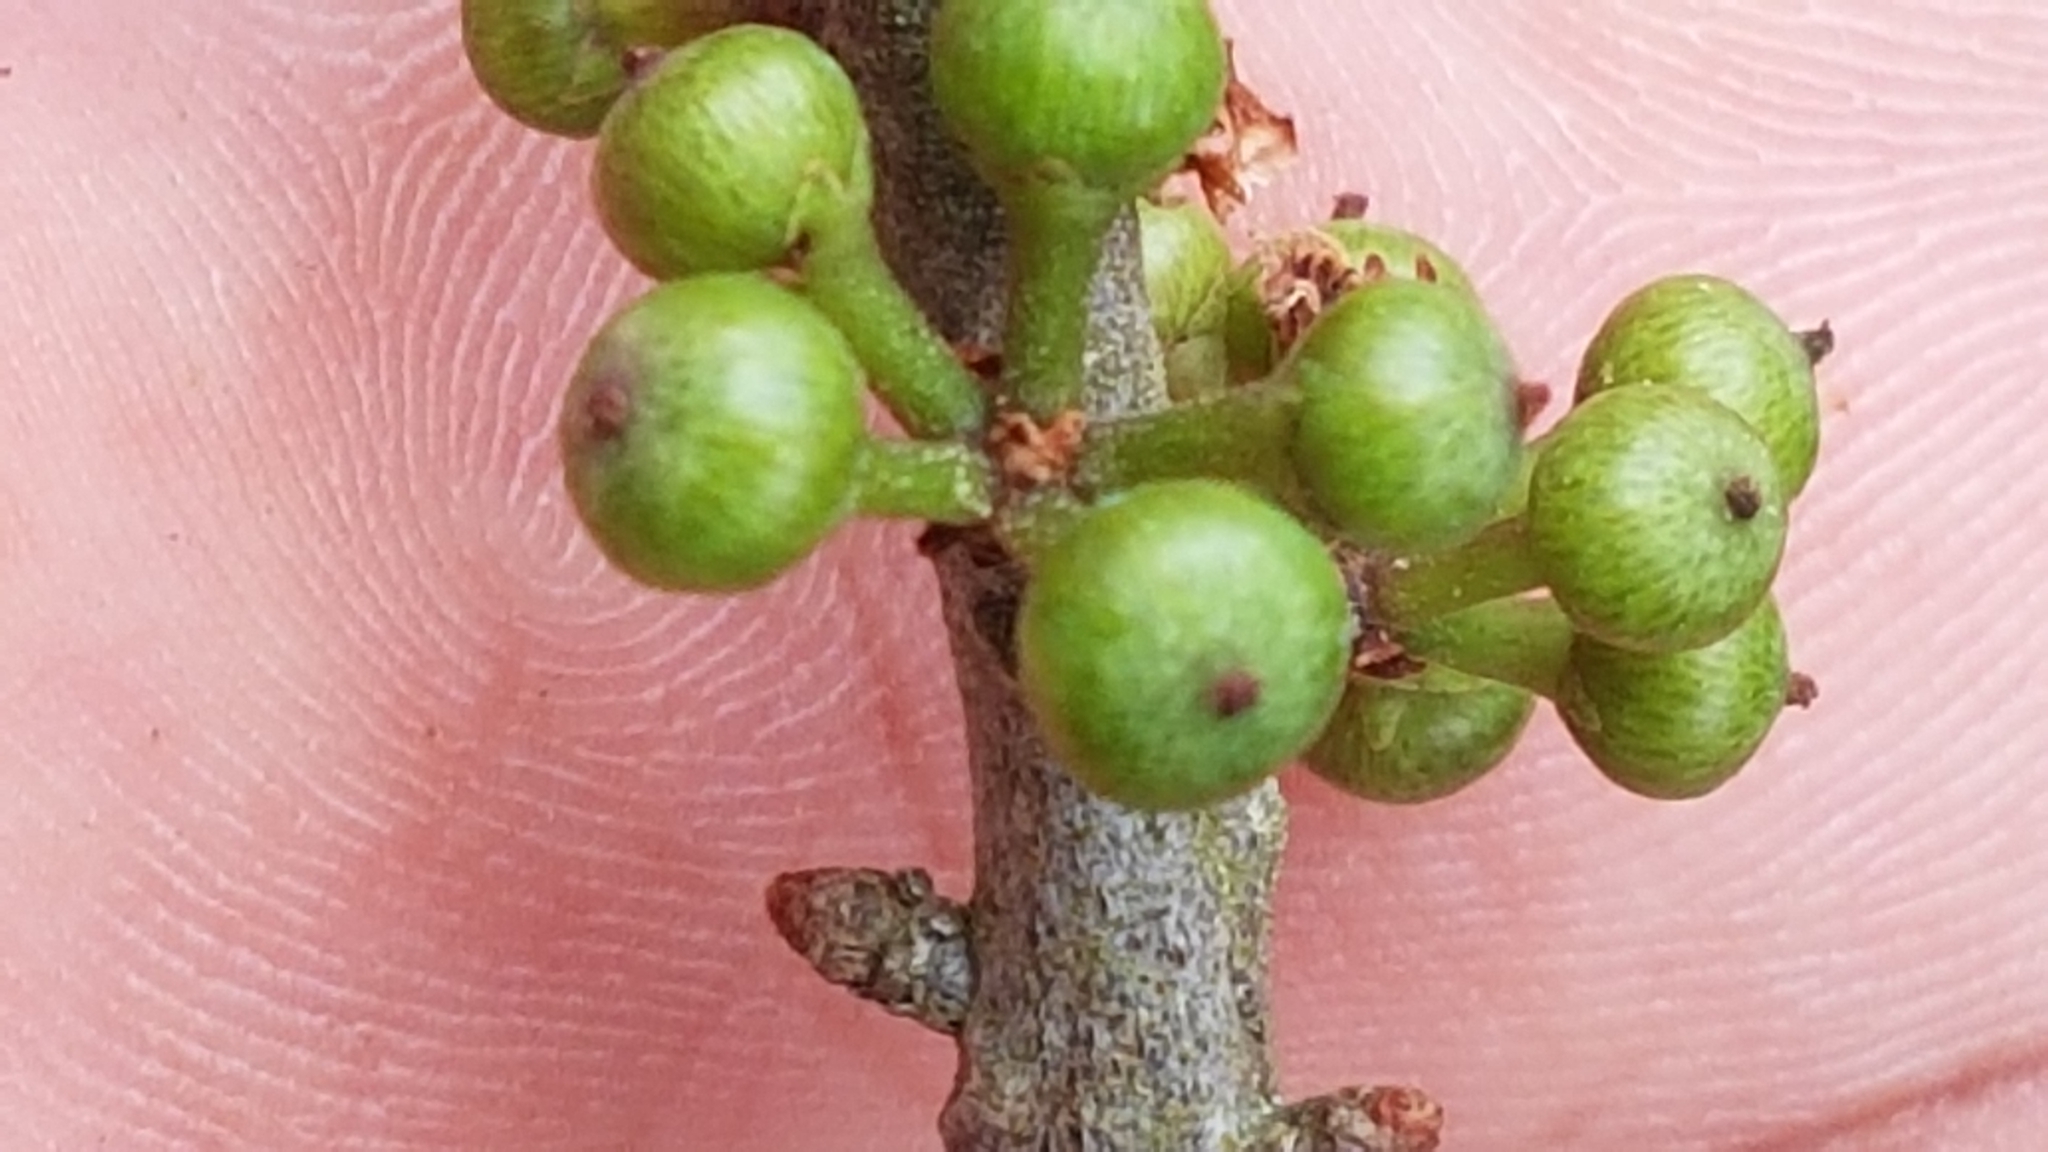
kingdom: Plantae
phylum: Tracheophyta
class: Magnoliopsida
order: Myrtales
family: Myrtaceae
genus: Psidium
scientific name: Psidium cattleianum
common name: Strawberry guava
